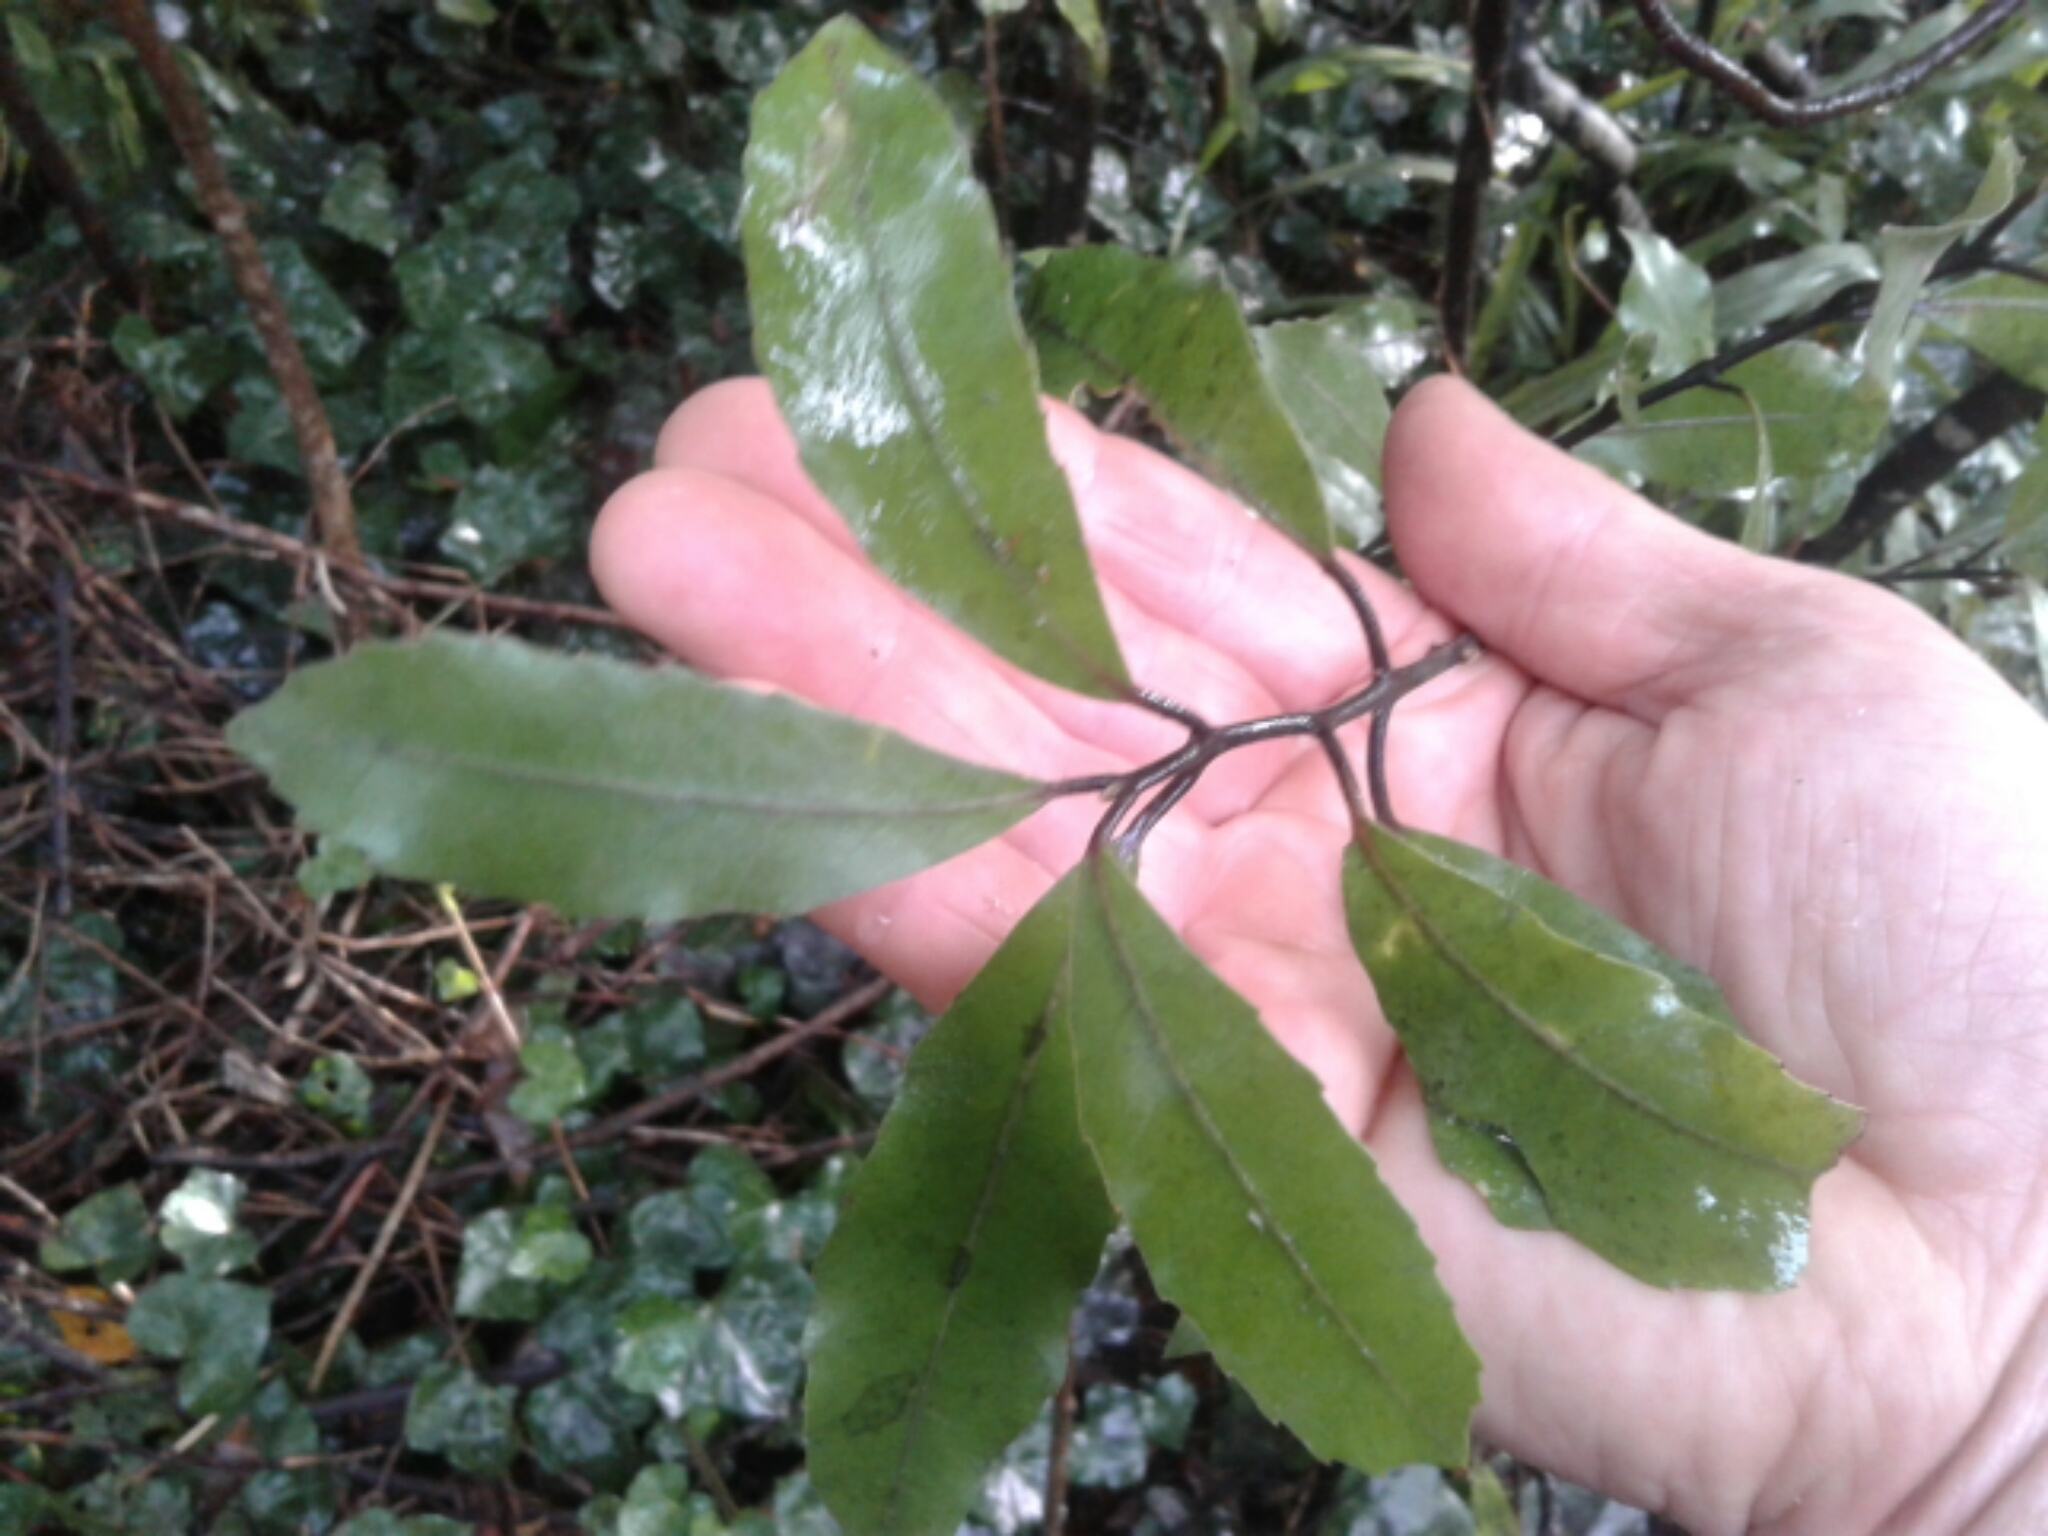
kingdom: Plantae
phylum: Tracheophyta
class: Magnoliopsida
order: Laurales
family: Monimiaceae
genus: Hedycarya
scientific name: Hedycarya arborea
